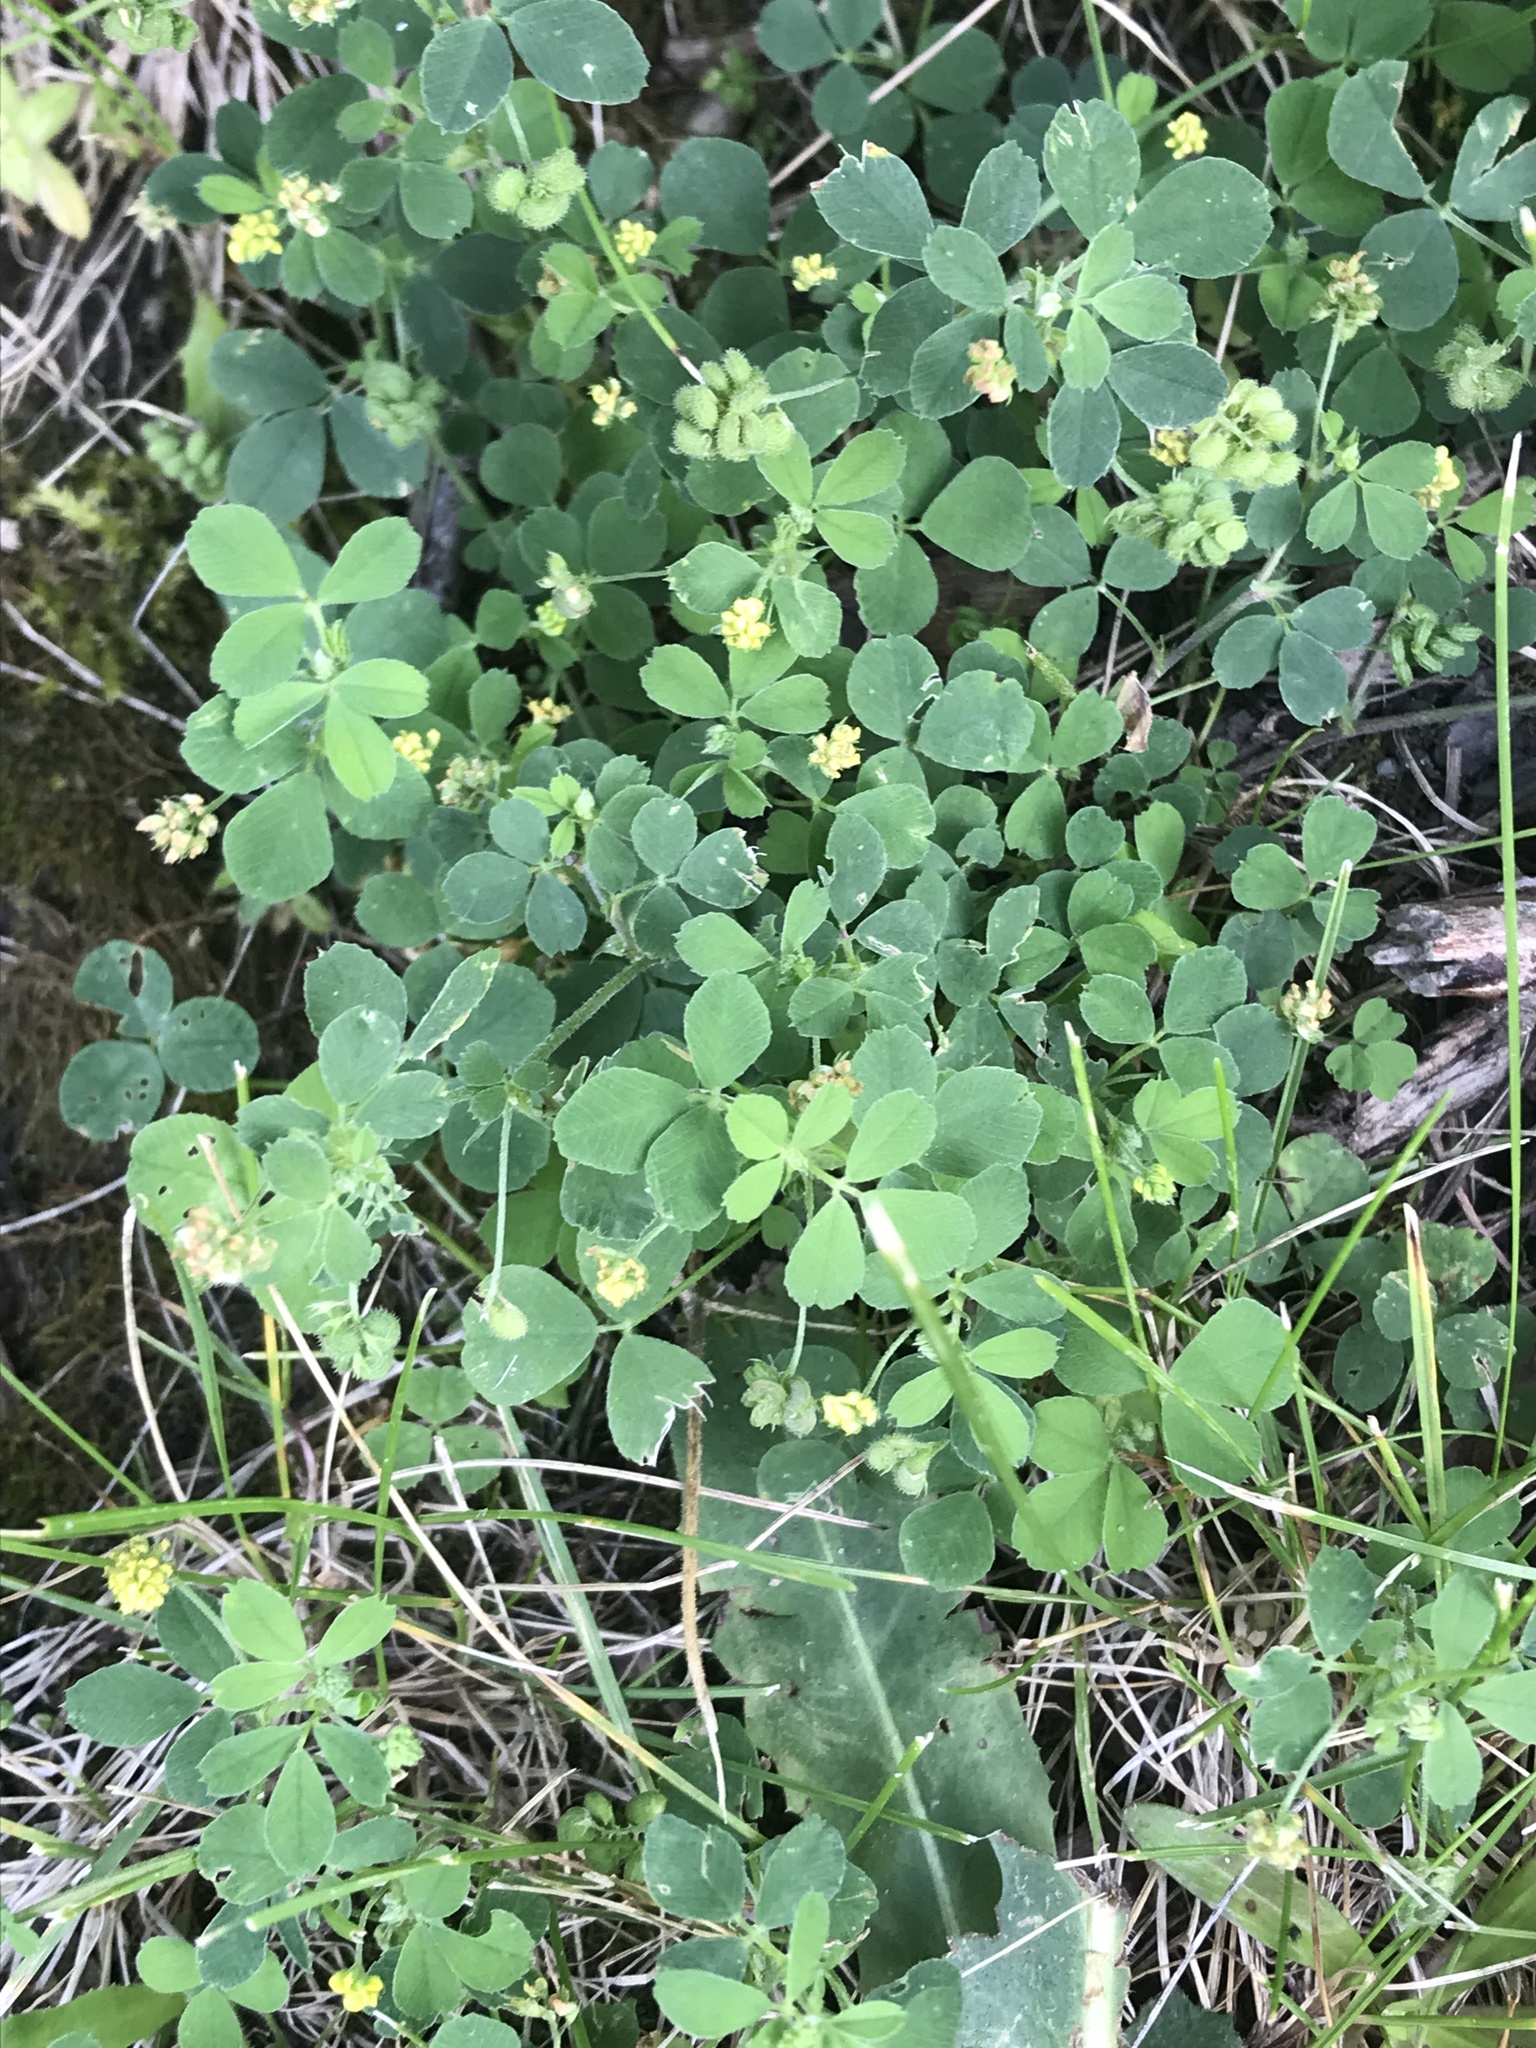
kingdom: Plantae
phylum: Tracheophyta
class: Magnoliopsida
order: Fabales
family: Fabaceae
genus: Medicago
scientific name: Medicago lupulina
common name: Black medick
